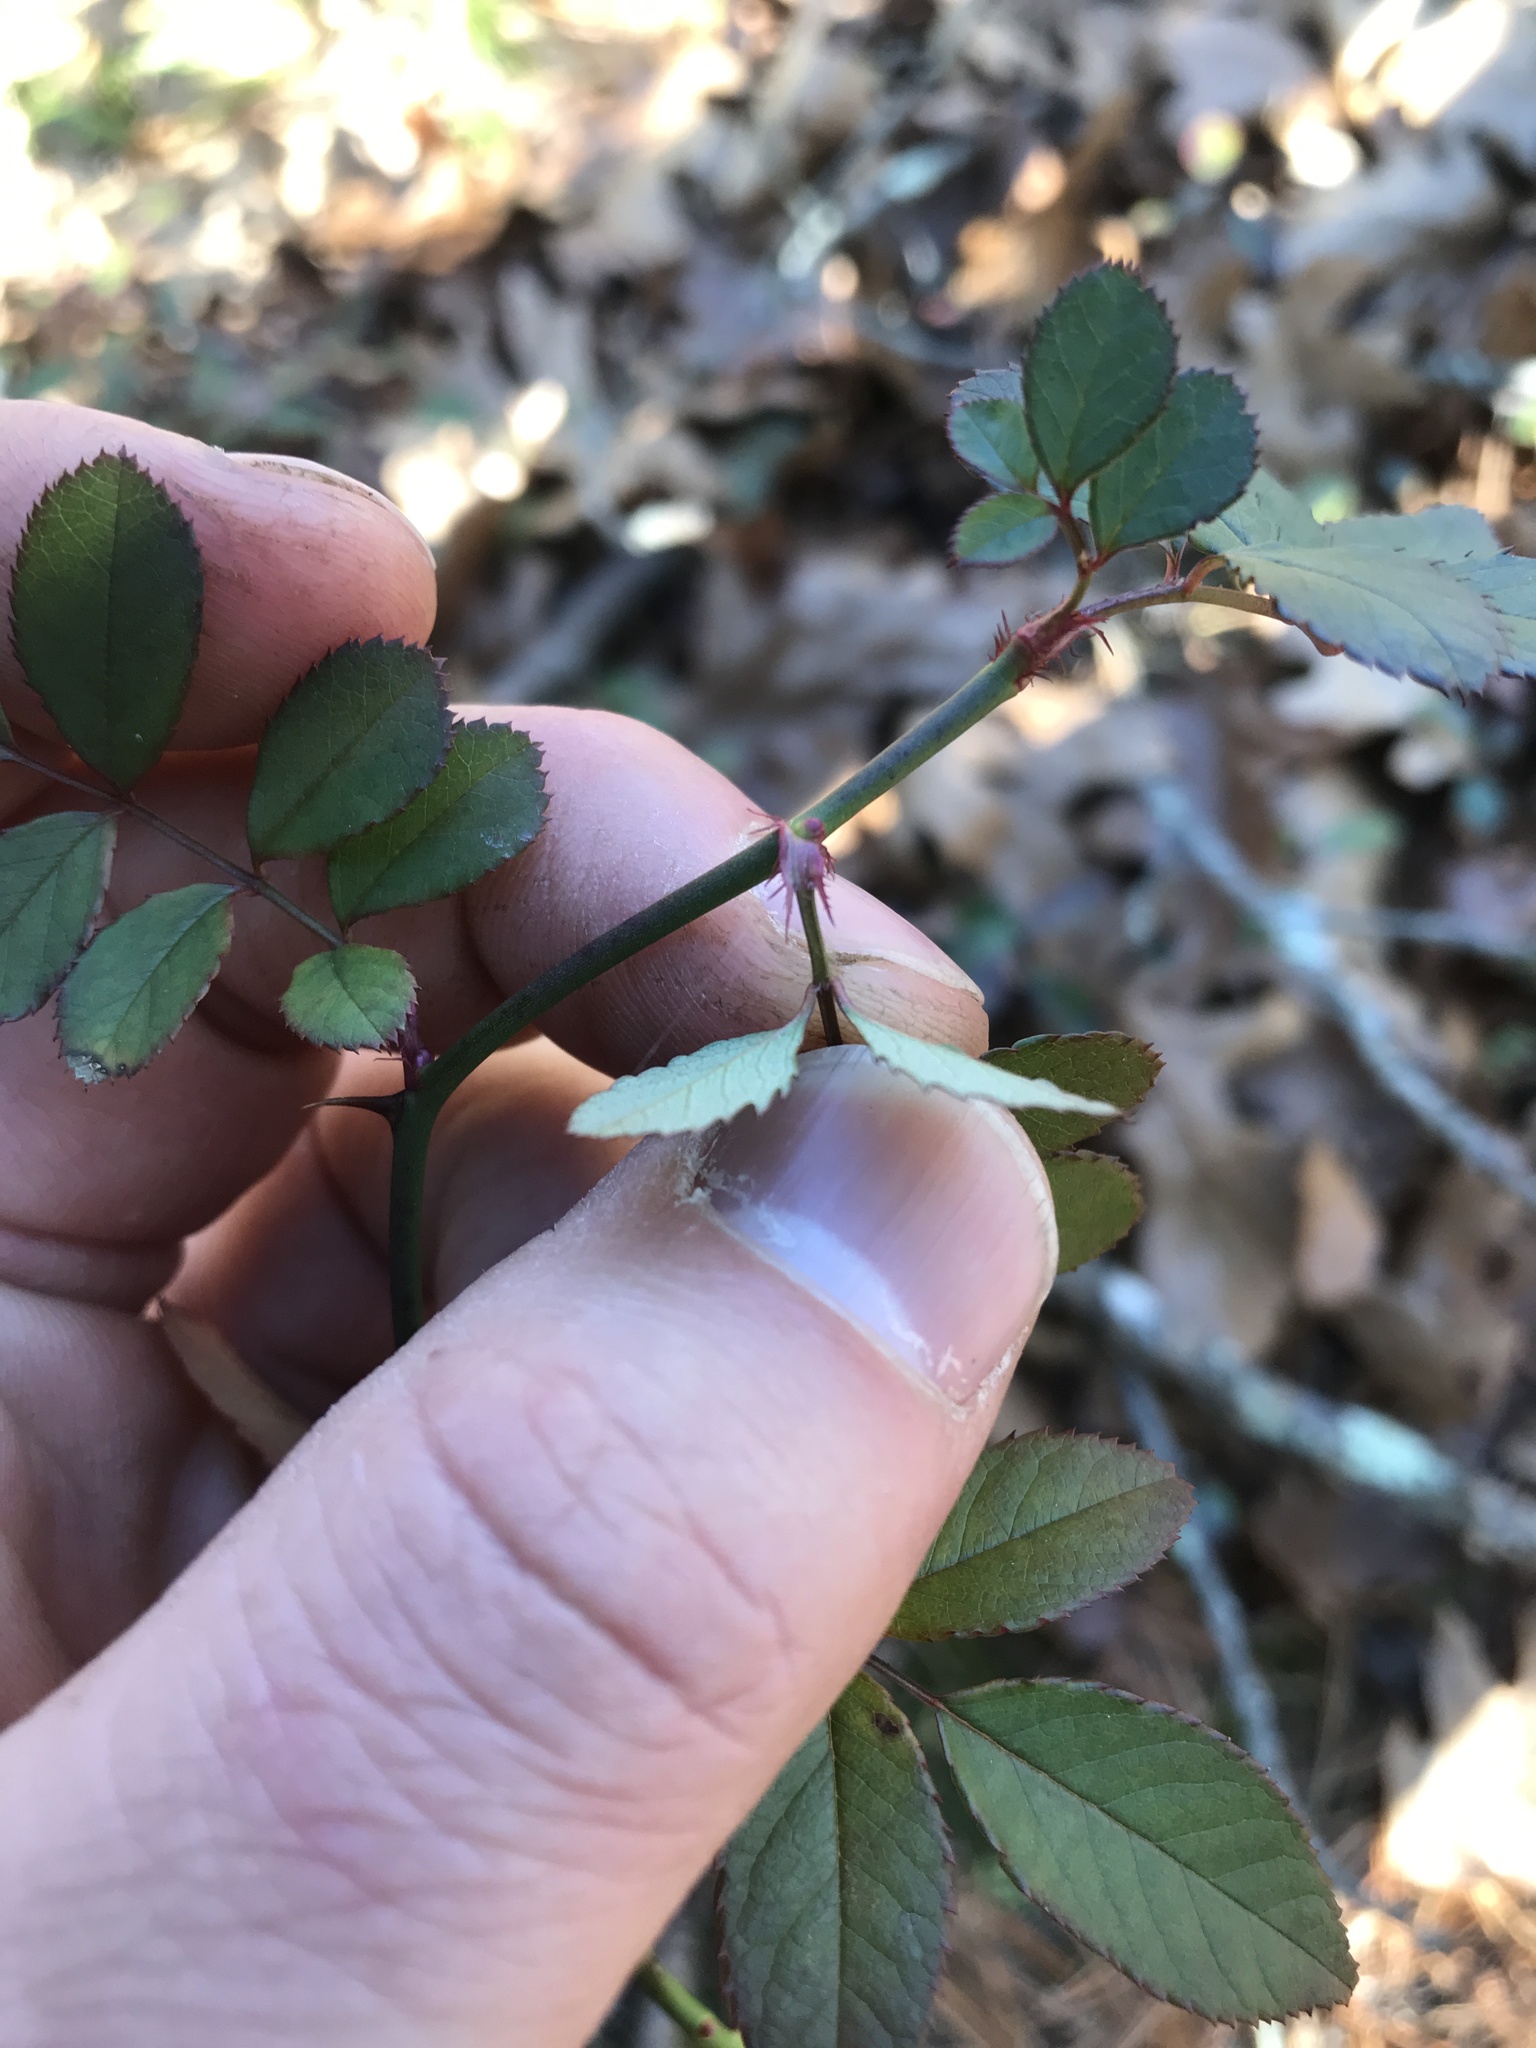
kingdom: Plantae
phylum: Tracheophyta
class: Magnoliopsida
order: Rosales
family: Rosaceae
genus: Rosa
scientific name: Rosa multiflora
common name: Multiflora rose
